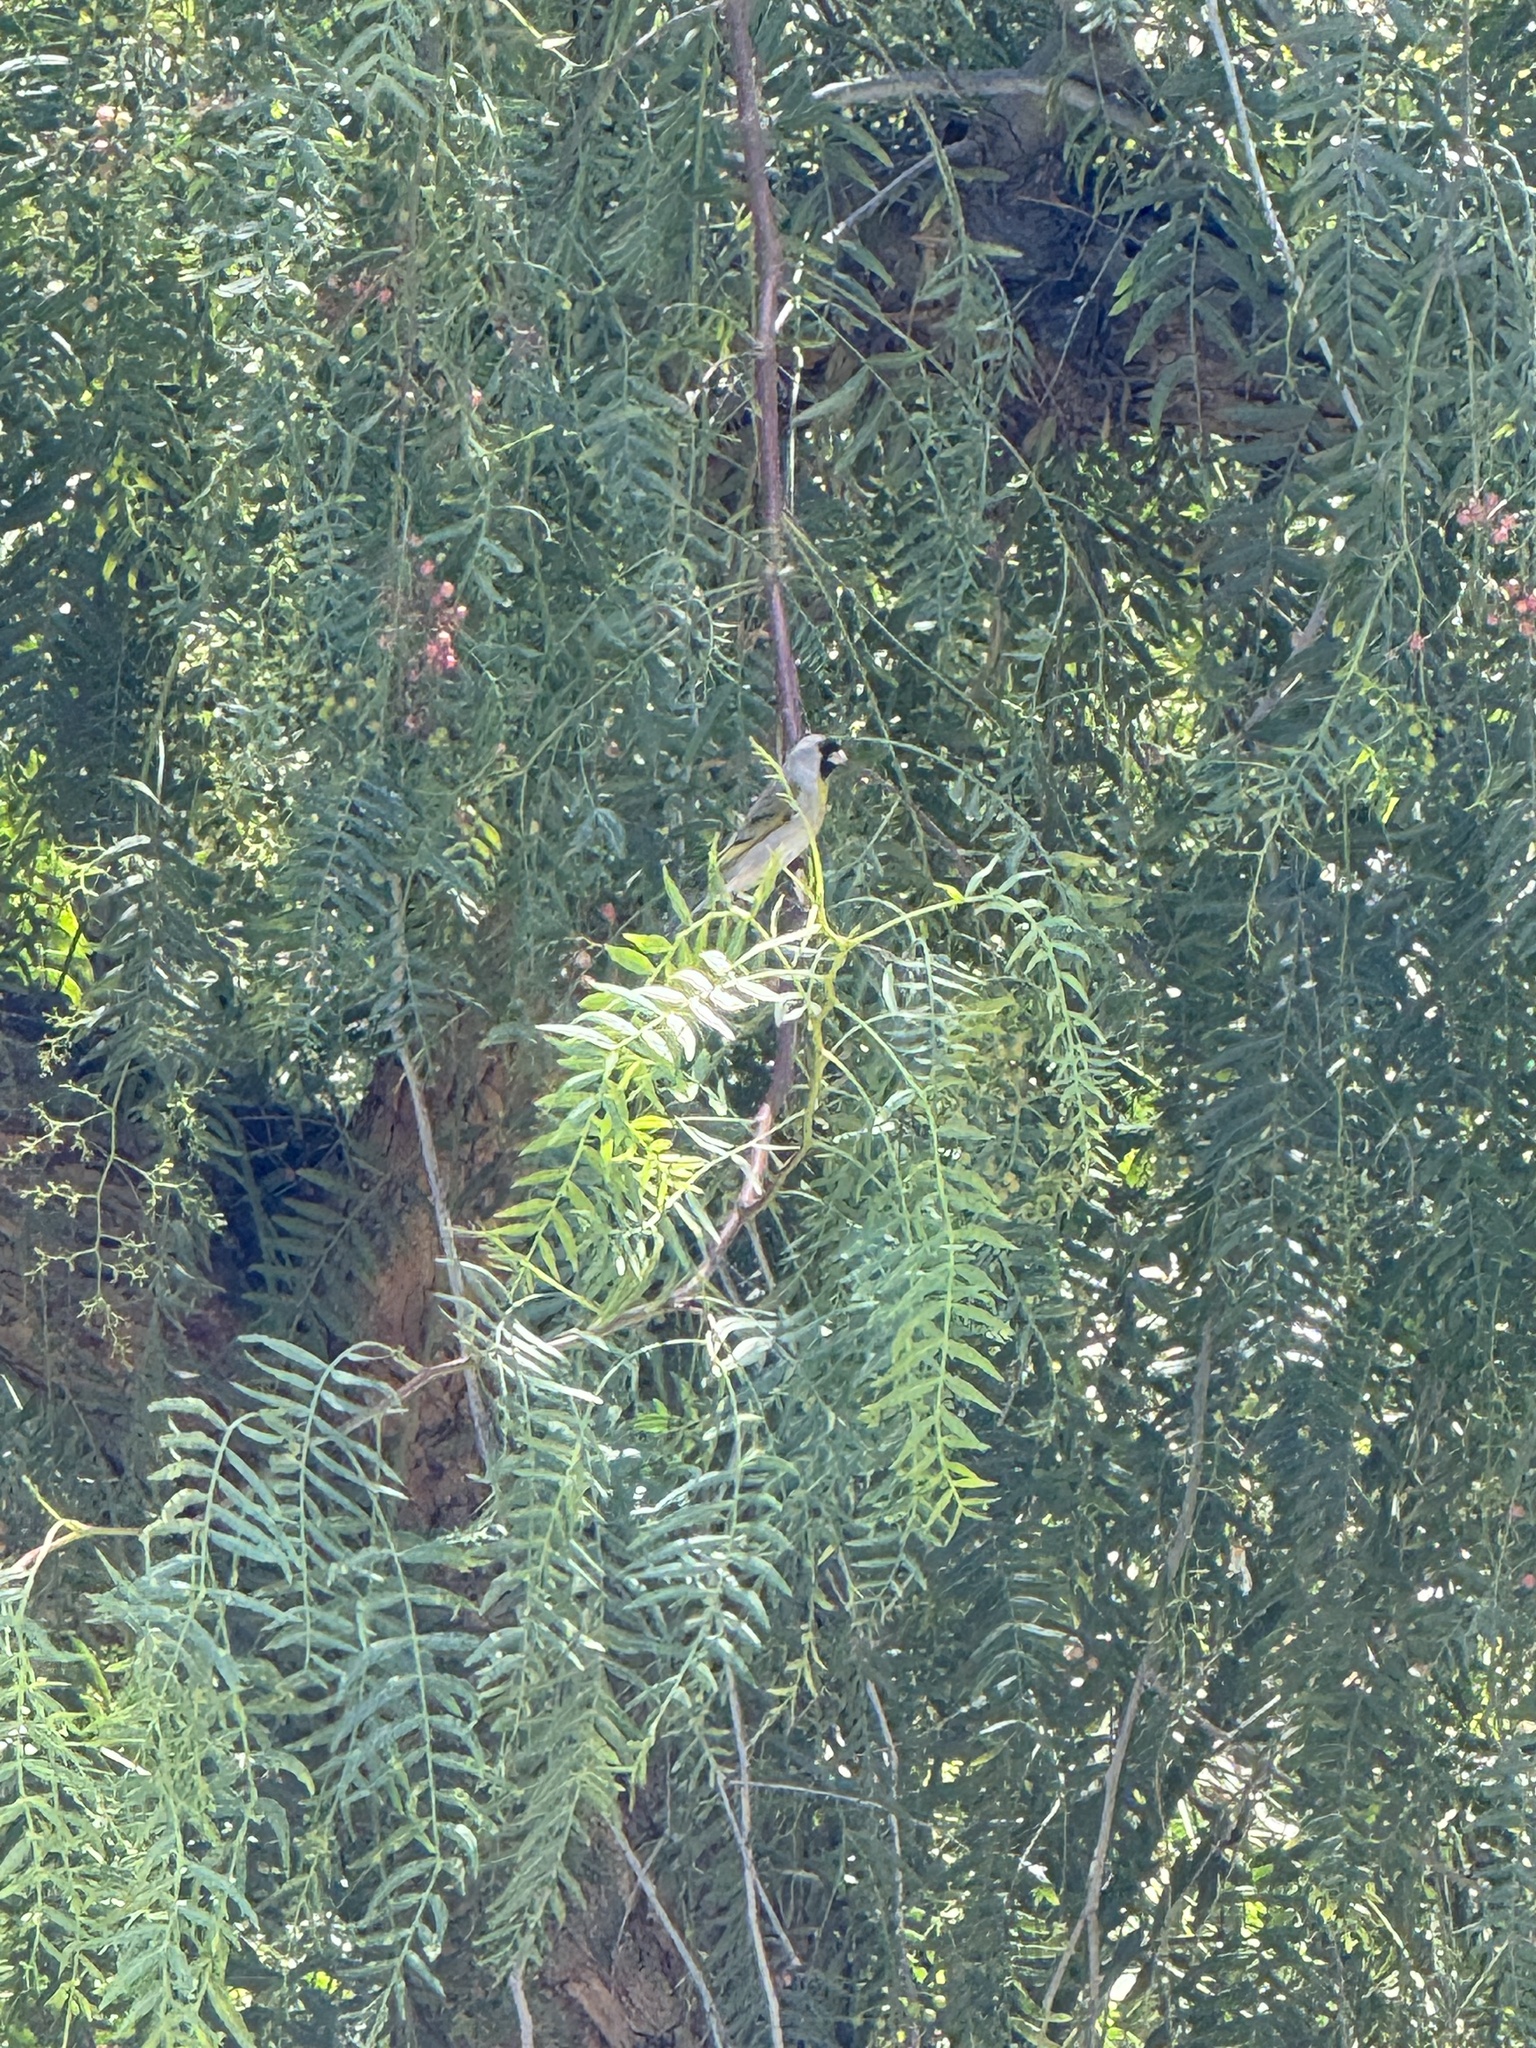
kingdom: Animalia
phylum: Chordata
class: Aves
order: Passeriformes
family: Fringillidae
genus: Spinus
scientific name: Spinus lawrencei
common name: Lawrence's goldfinch
